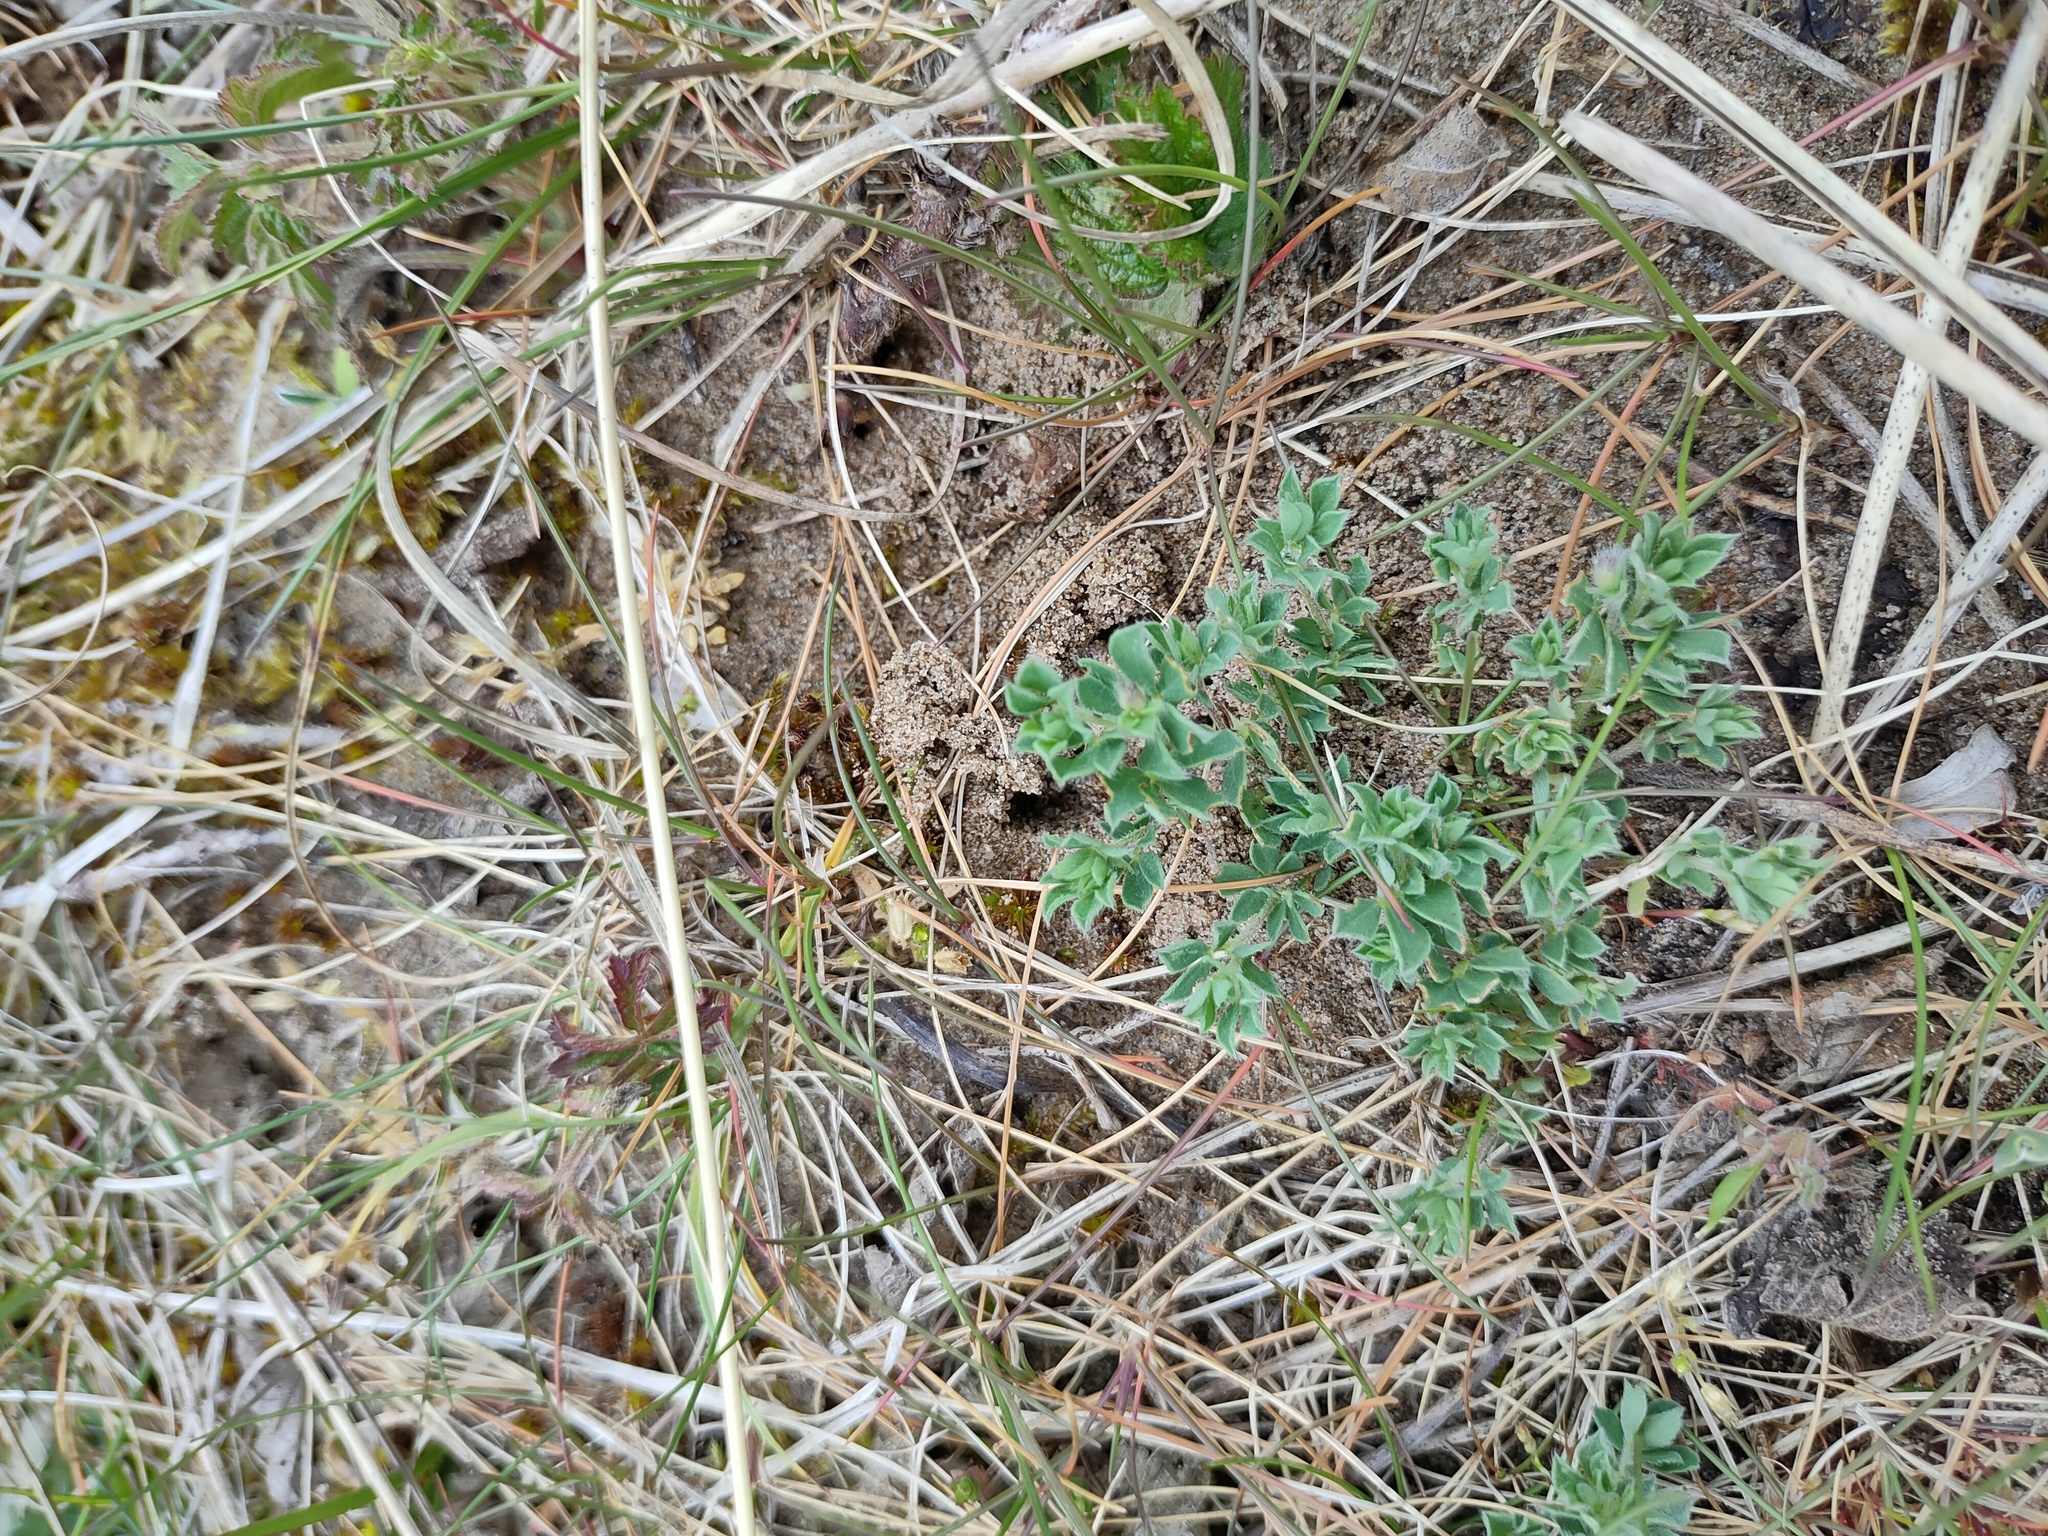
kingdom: Plantae
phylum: Tracheophyta
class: Magnoliopsida
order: Fabales
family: Fabaceae
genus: Lotus
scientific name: Lotus corniculatus
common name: Common bird's-foot-trefoil
